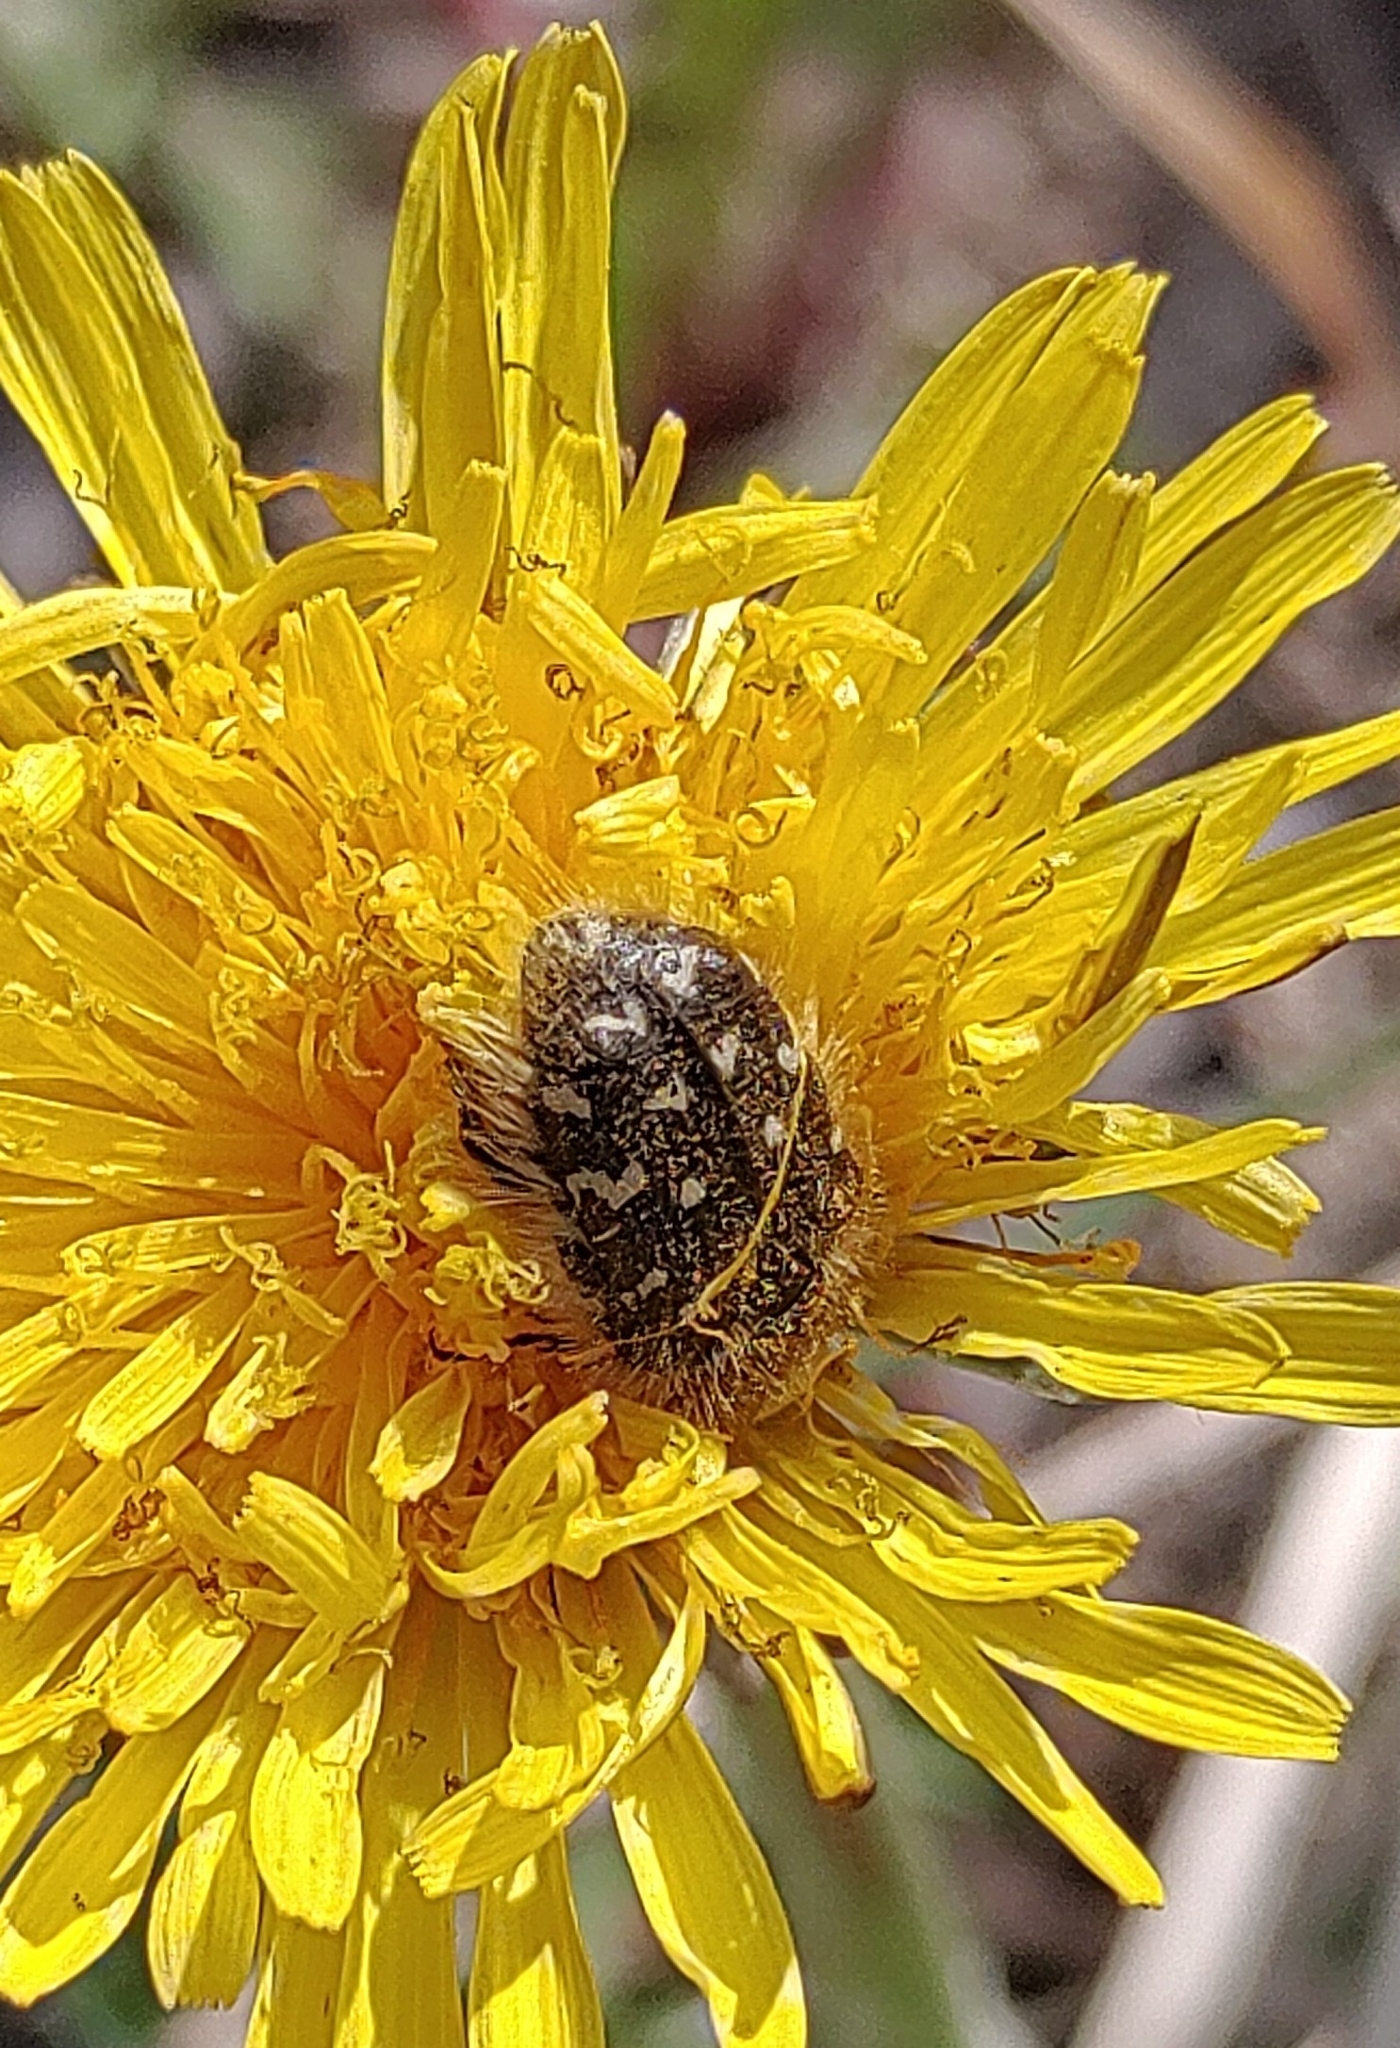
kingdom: Animalia
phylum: Arthropoda
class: Insecta
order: Coleoptera
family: Scarabaeidae
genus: Tropinota
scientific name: Tropinota hirta
